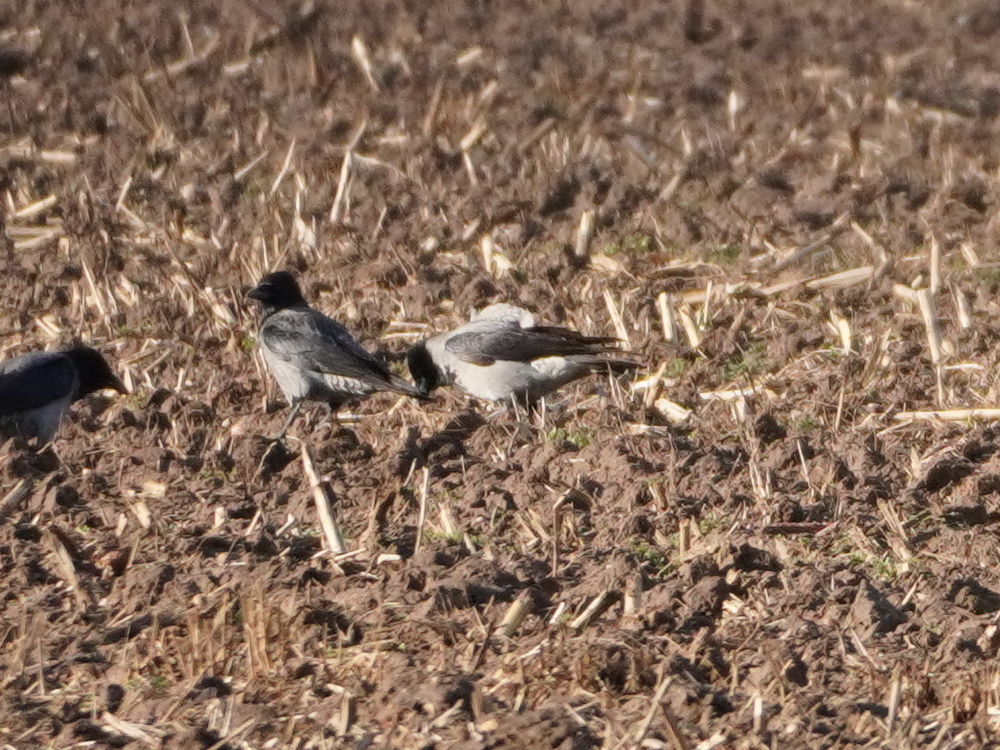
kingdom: Animalia
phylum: Chordata
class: Aves
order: Passeriformes
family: Corvidae
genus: Corvus
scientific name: Corvus cornix
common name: Hooded crow
